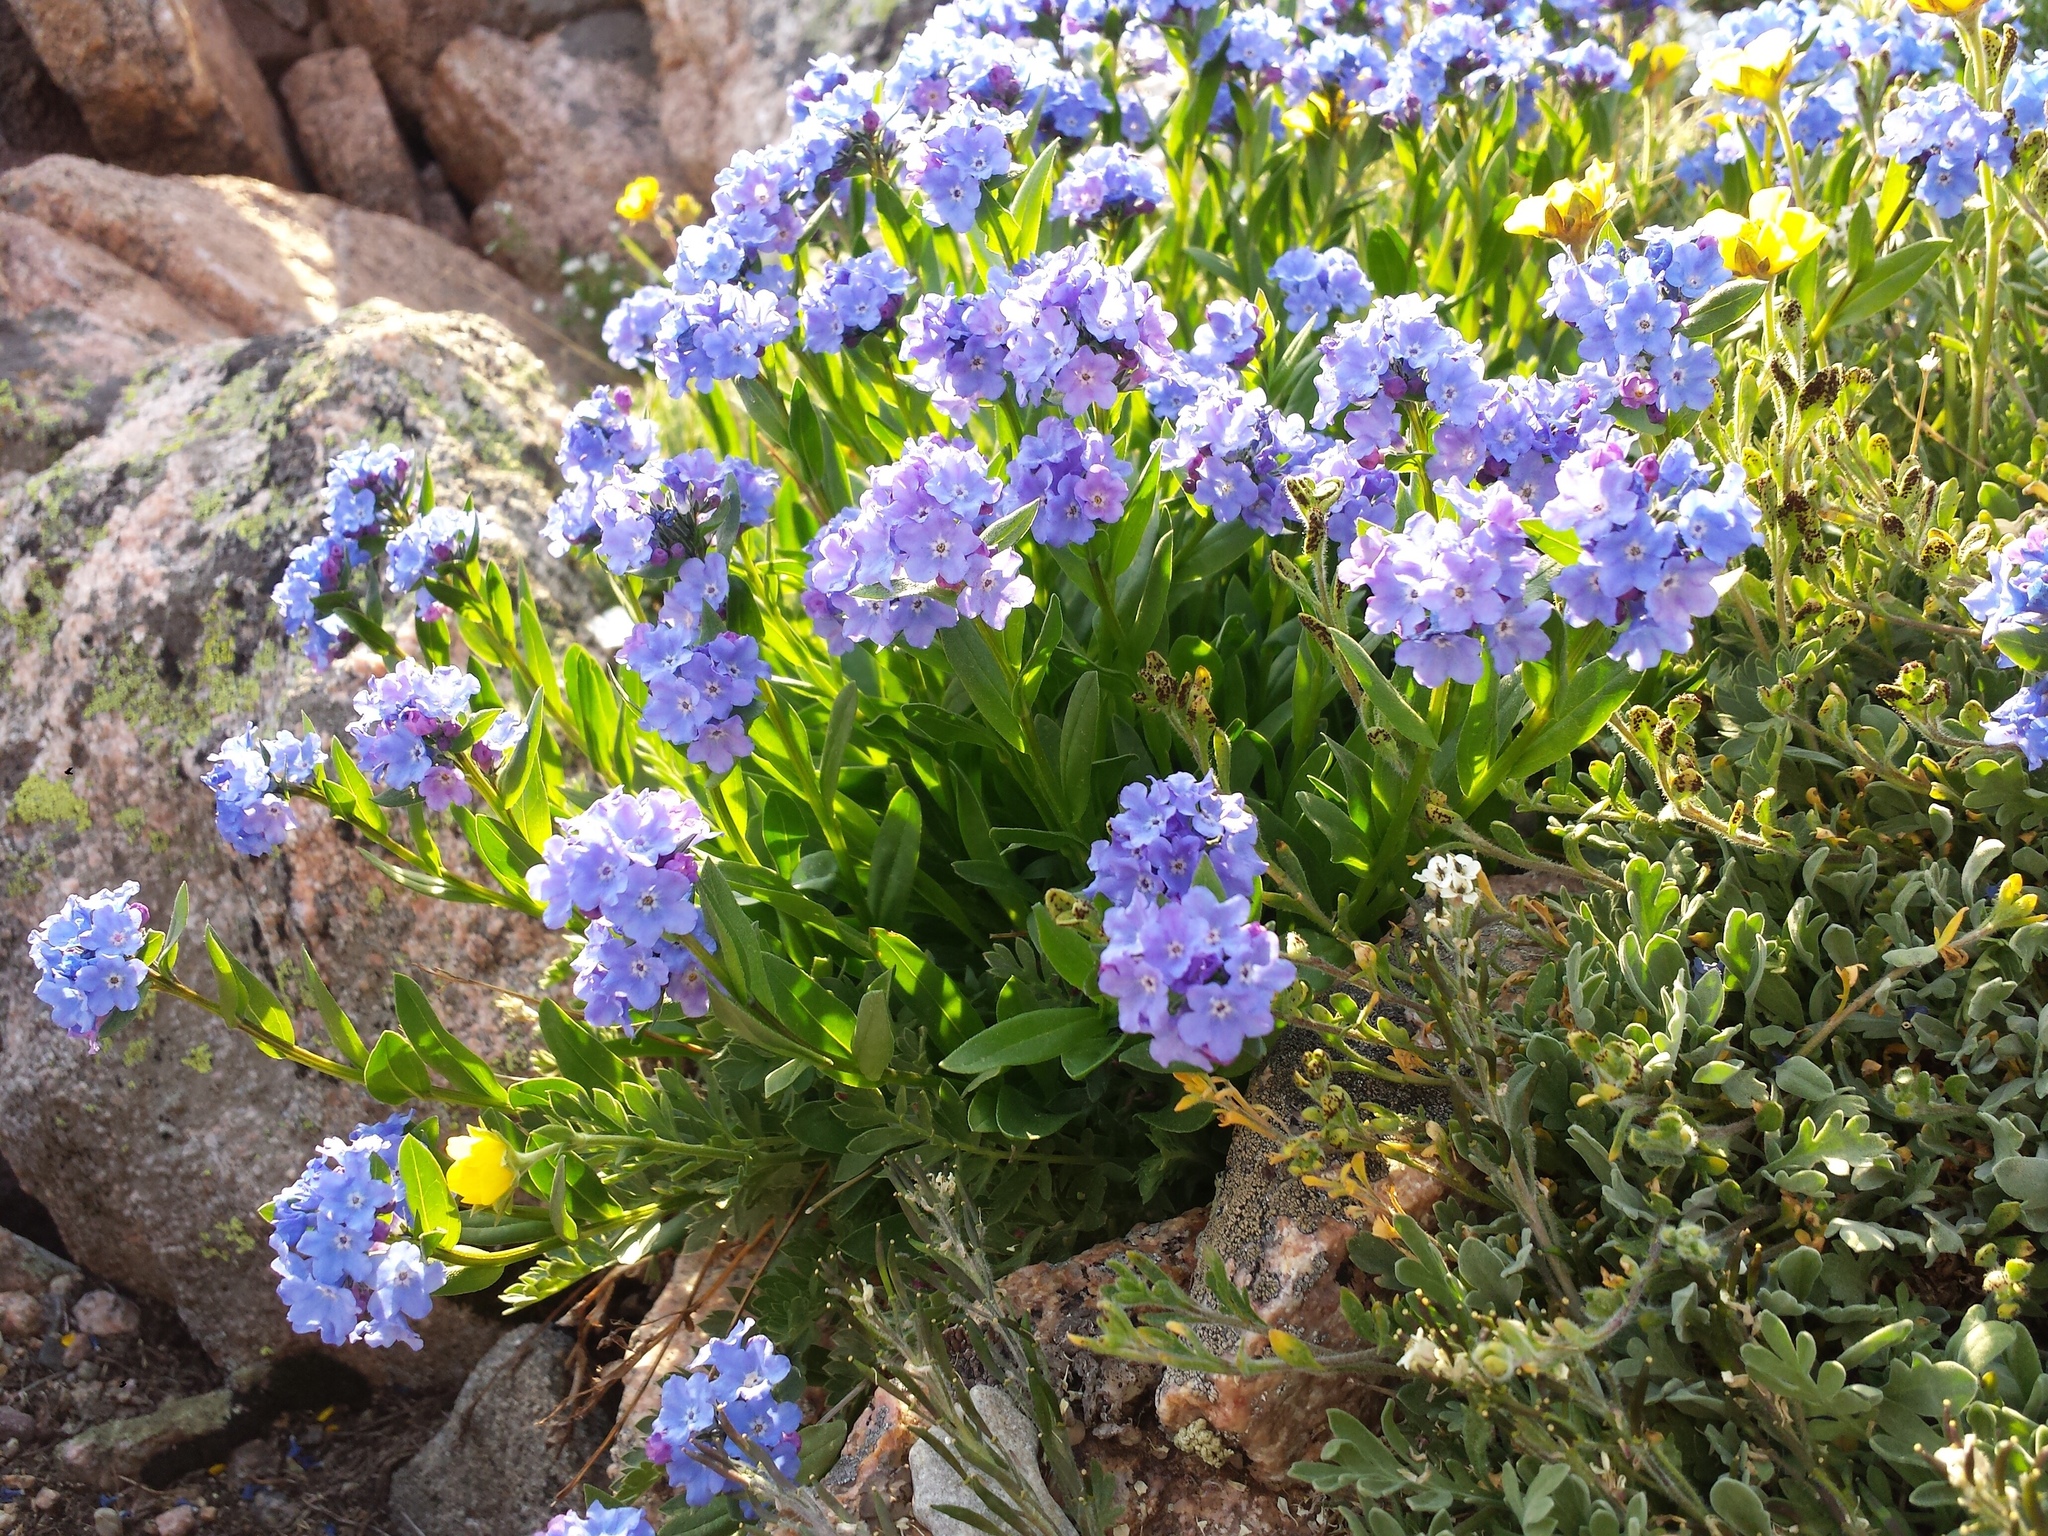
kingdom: Plantae
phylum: Tracheophyta
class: Magnoliopsida
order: Boraginales
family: Boraginaceae
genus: Myosotis
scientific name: Myosotis asiatica
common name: Asian forget-me-not
